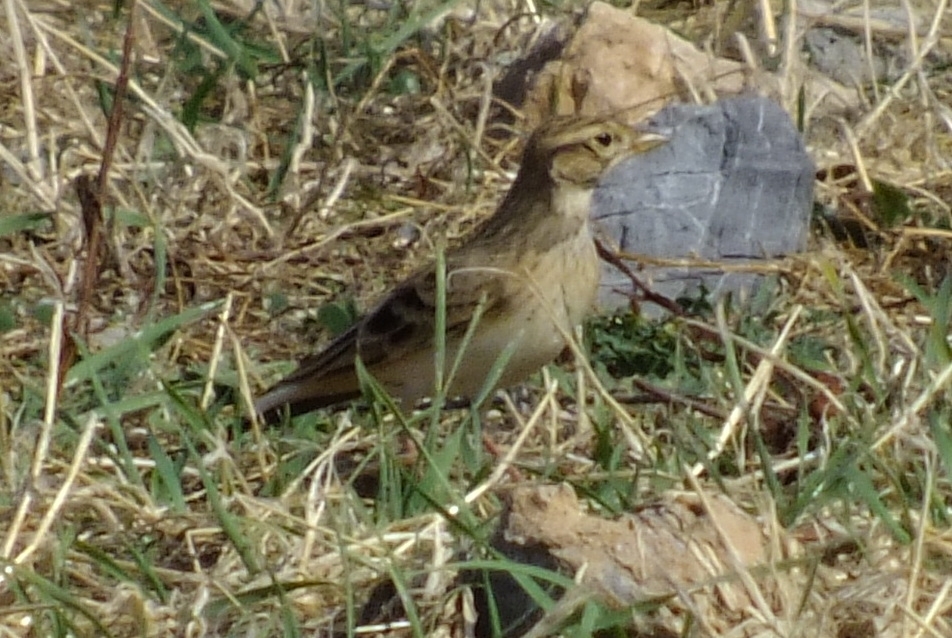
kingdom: Animalia
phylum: Chordata
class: Aves
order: Passeriformes
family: Alaudidae
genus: Calandrella
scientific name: Calandrella brachydactyla
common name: Greater short-toed lark
